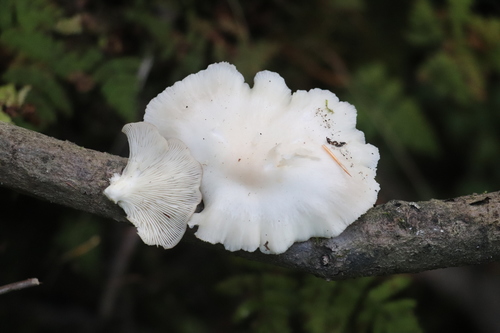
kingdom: Fungi
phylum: Basidiomycota
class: Agaricomycetes
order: Agaricales
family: Pleurotaceae
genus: Pleurotus
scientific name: Pleurotus pulmonarius
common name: Pale oyster
